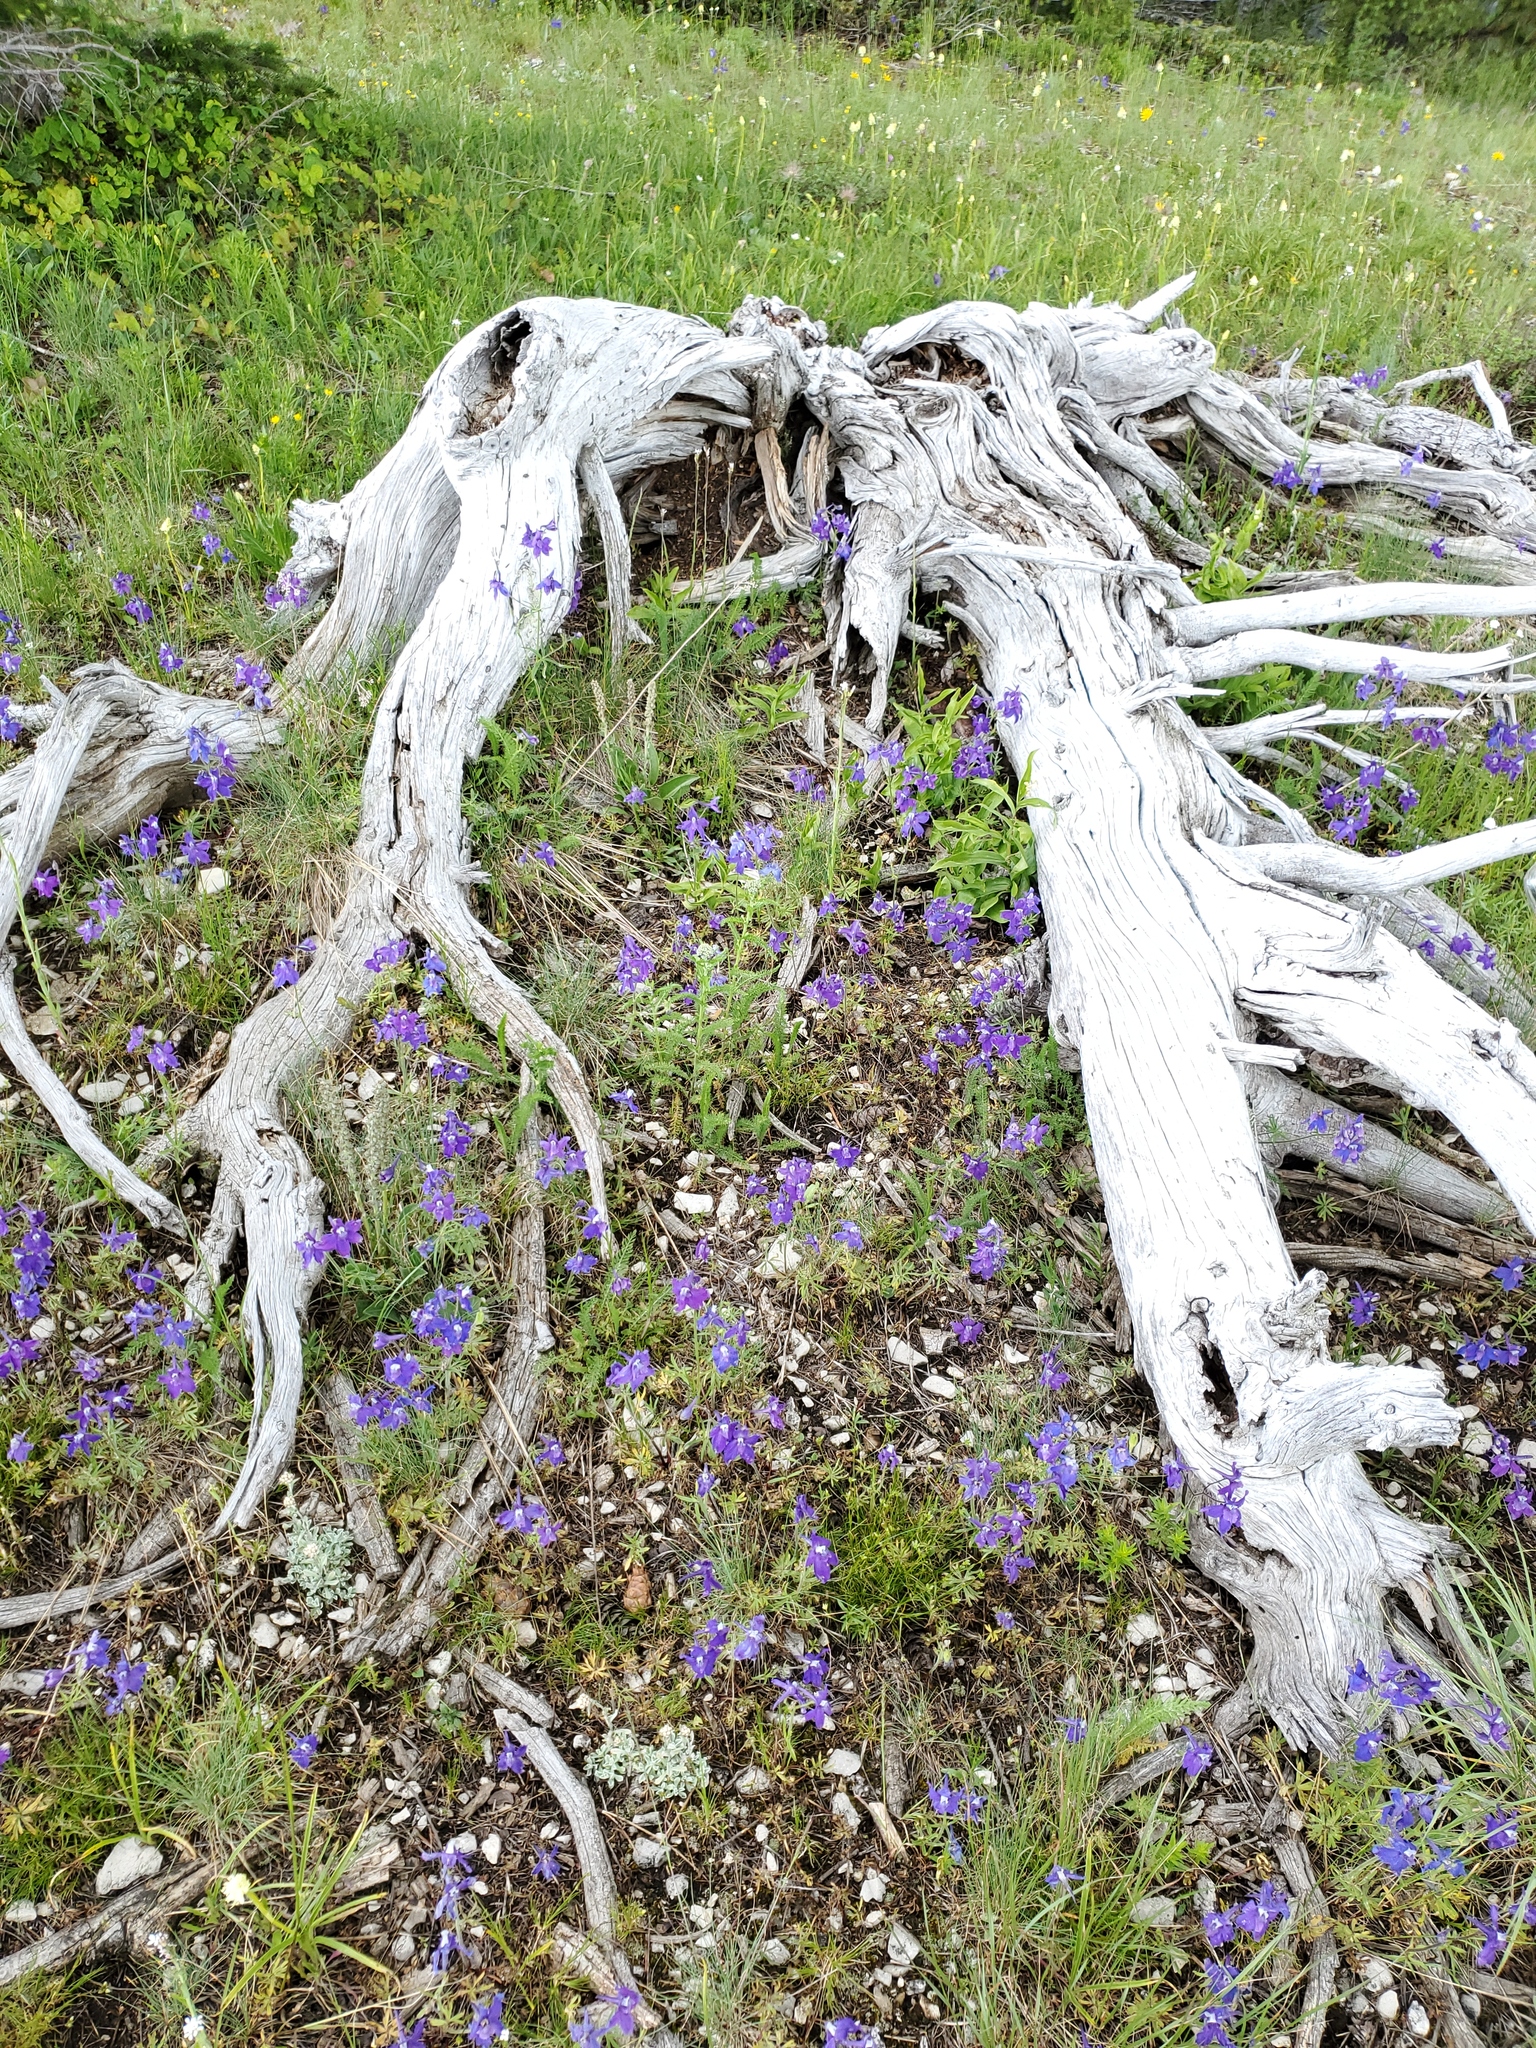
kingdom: Plantae
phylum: Tracheophyta
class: Magnoliopsida
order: Ranunculales
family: Ranunculaceae
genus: Delphinium
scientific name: Delphinium bicolor
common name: Low larkspur
